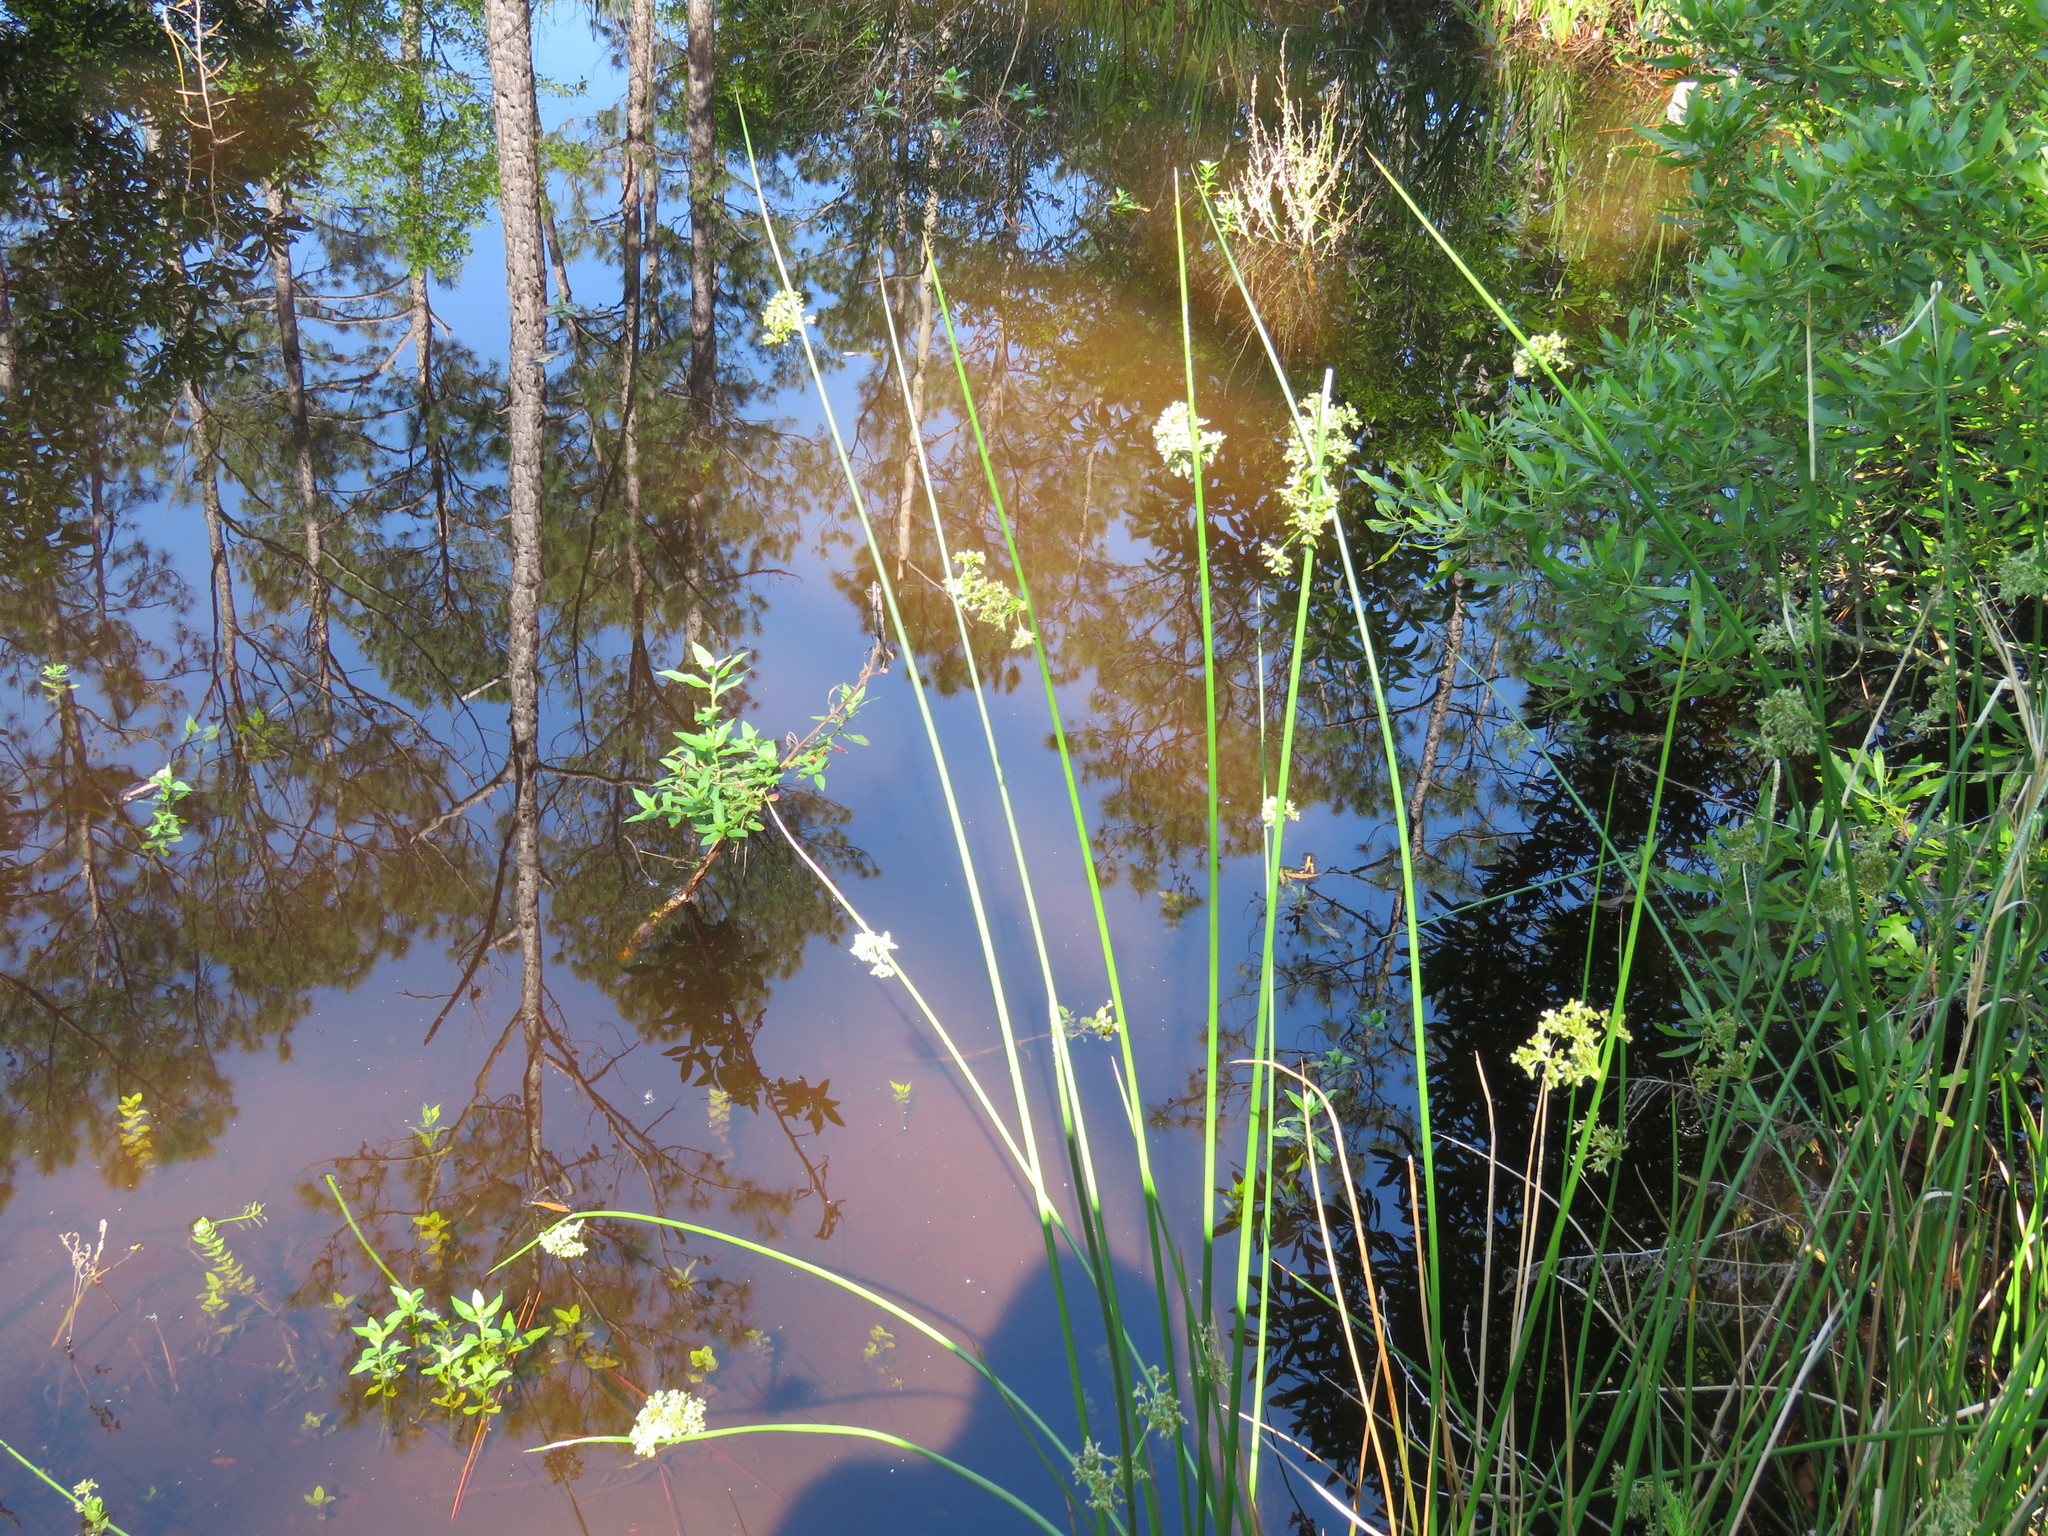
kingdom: Plantae
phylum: Tracheophyta
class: Liliopsida
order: Poales
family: Juncaceae
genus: Juncus
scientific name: Juncus effusus
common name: Soft rush
